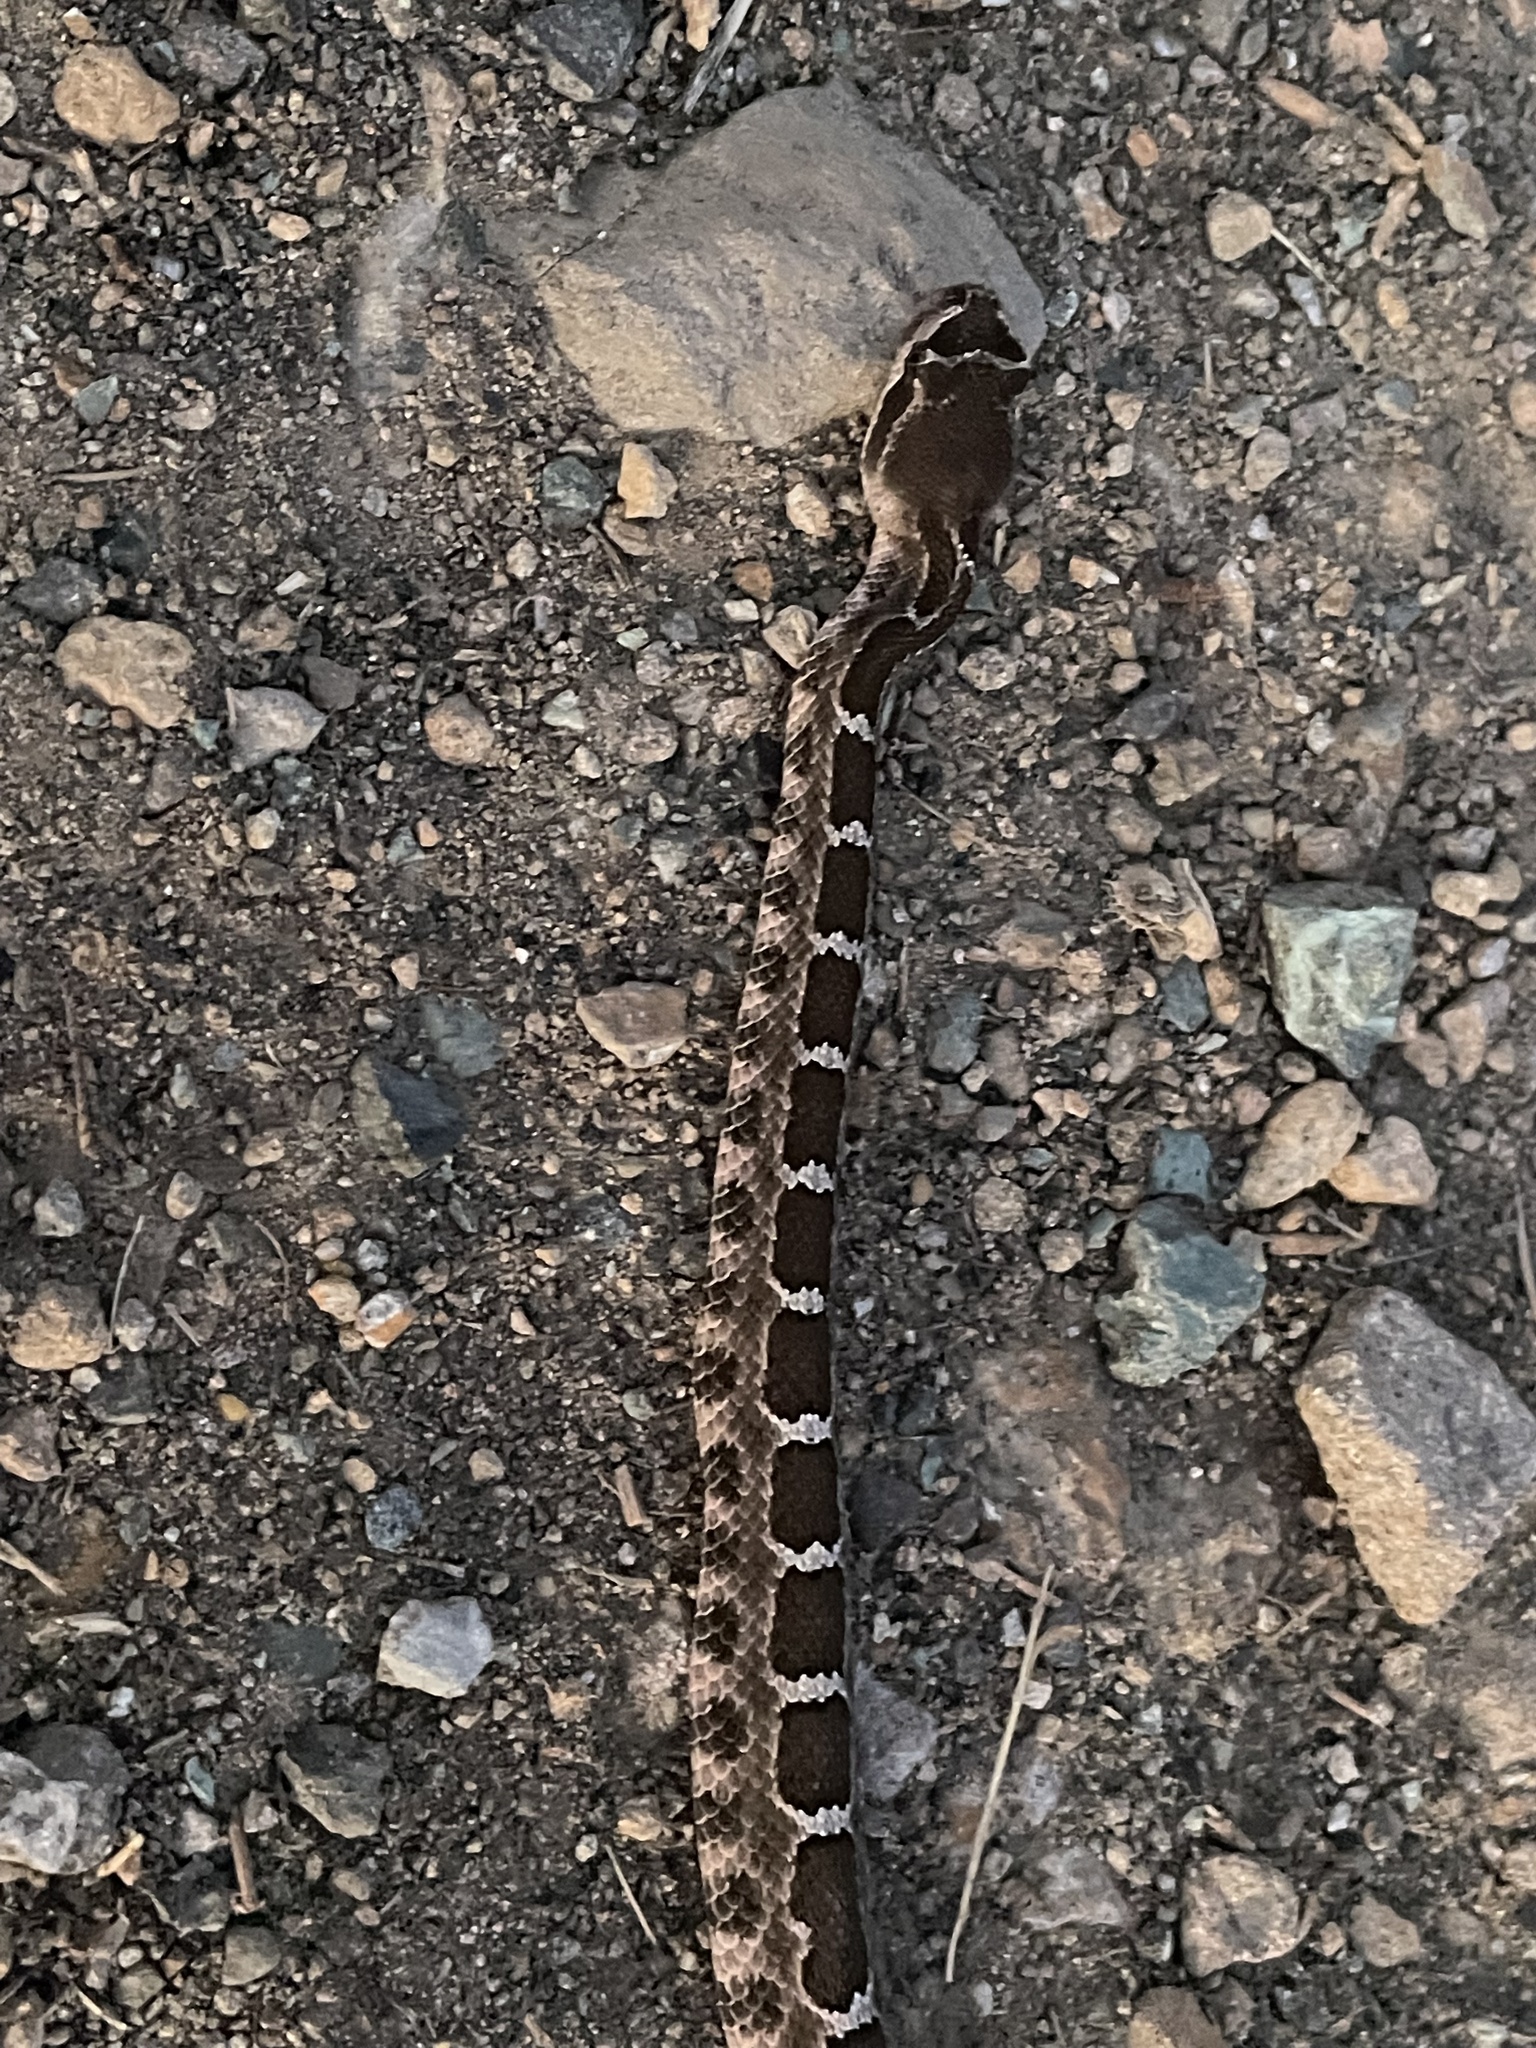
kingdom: Animalia
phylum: Chordata
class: Squamata
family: Viperidae
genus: Crotalus
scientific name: Crotalus oreganus
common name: Abyssus
